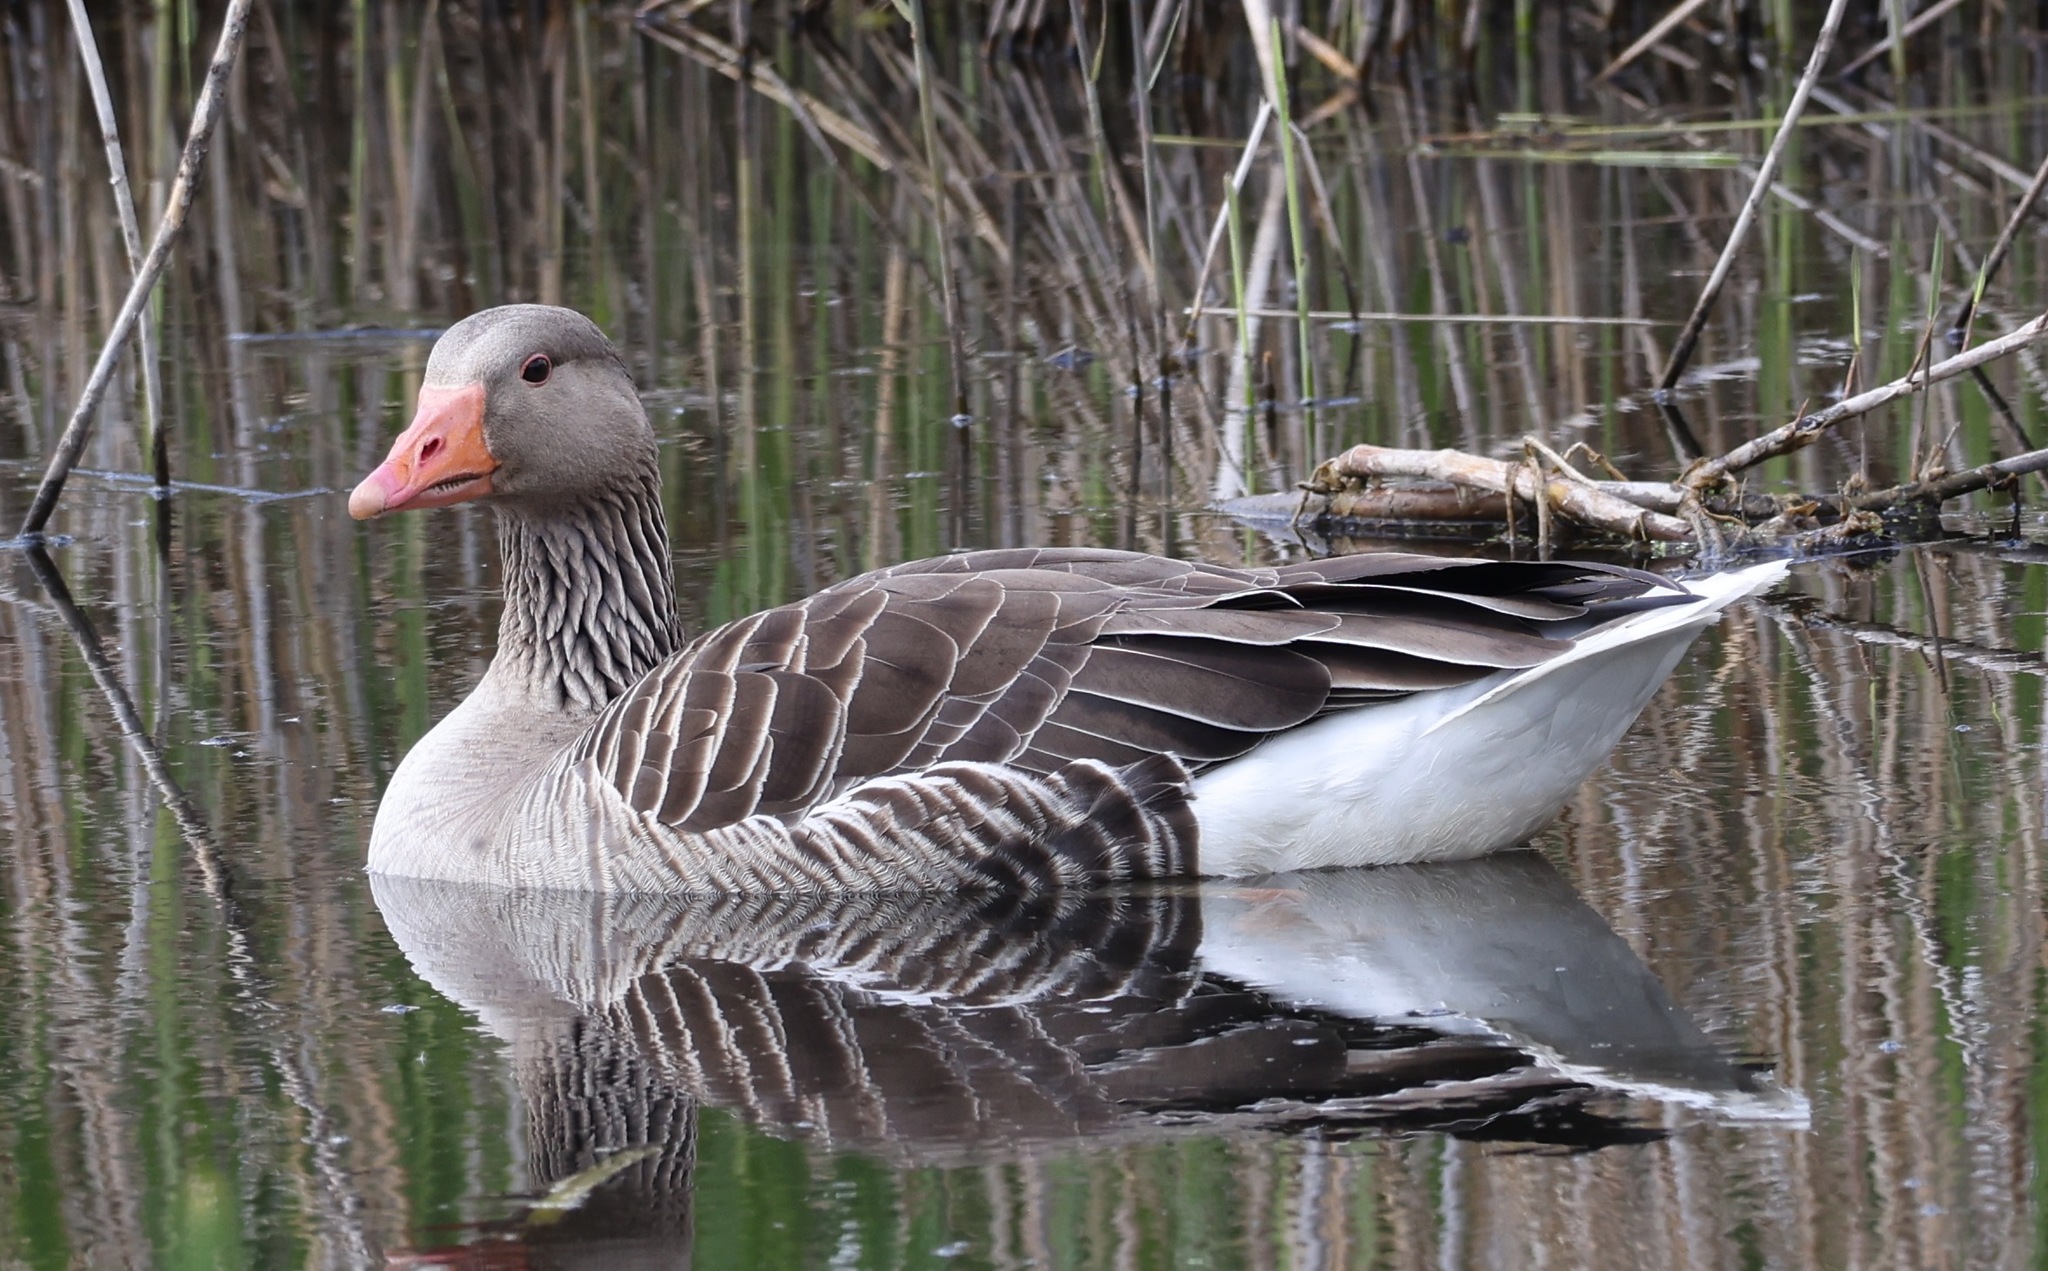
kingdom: Animalia
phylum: Chordata
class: Aves
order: Anseriformes
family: Anatidae
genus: Anser
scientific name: Anser anser
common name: Greylag goose
